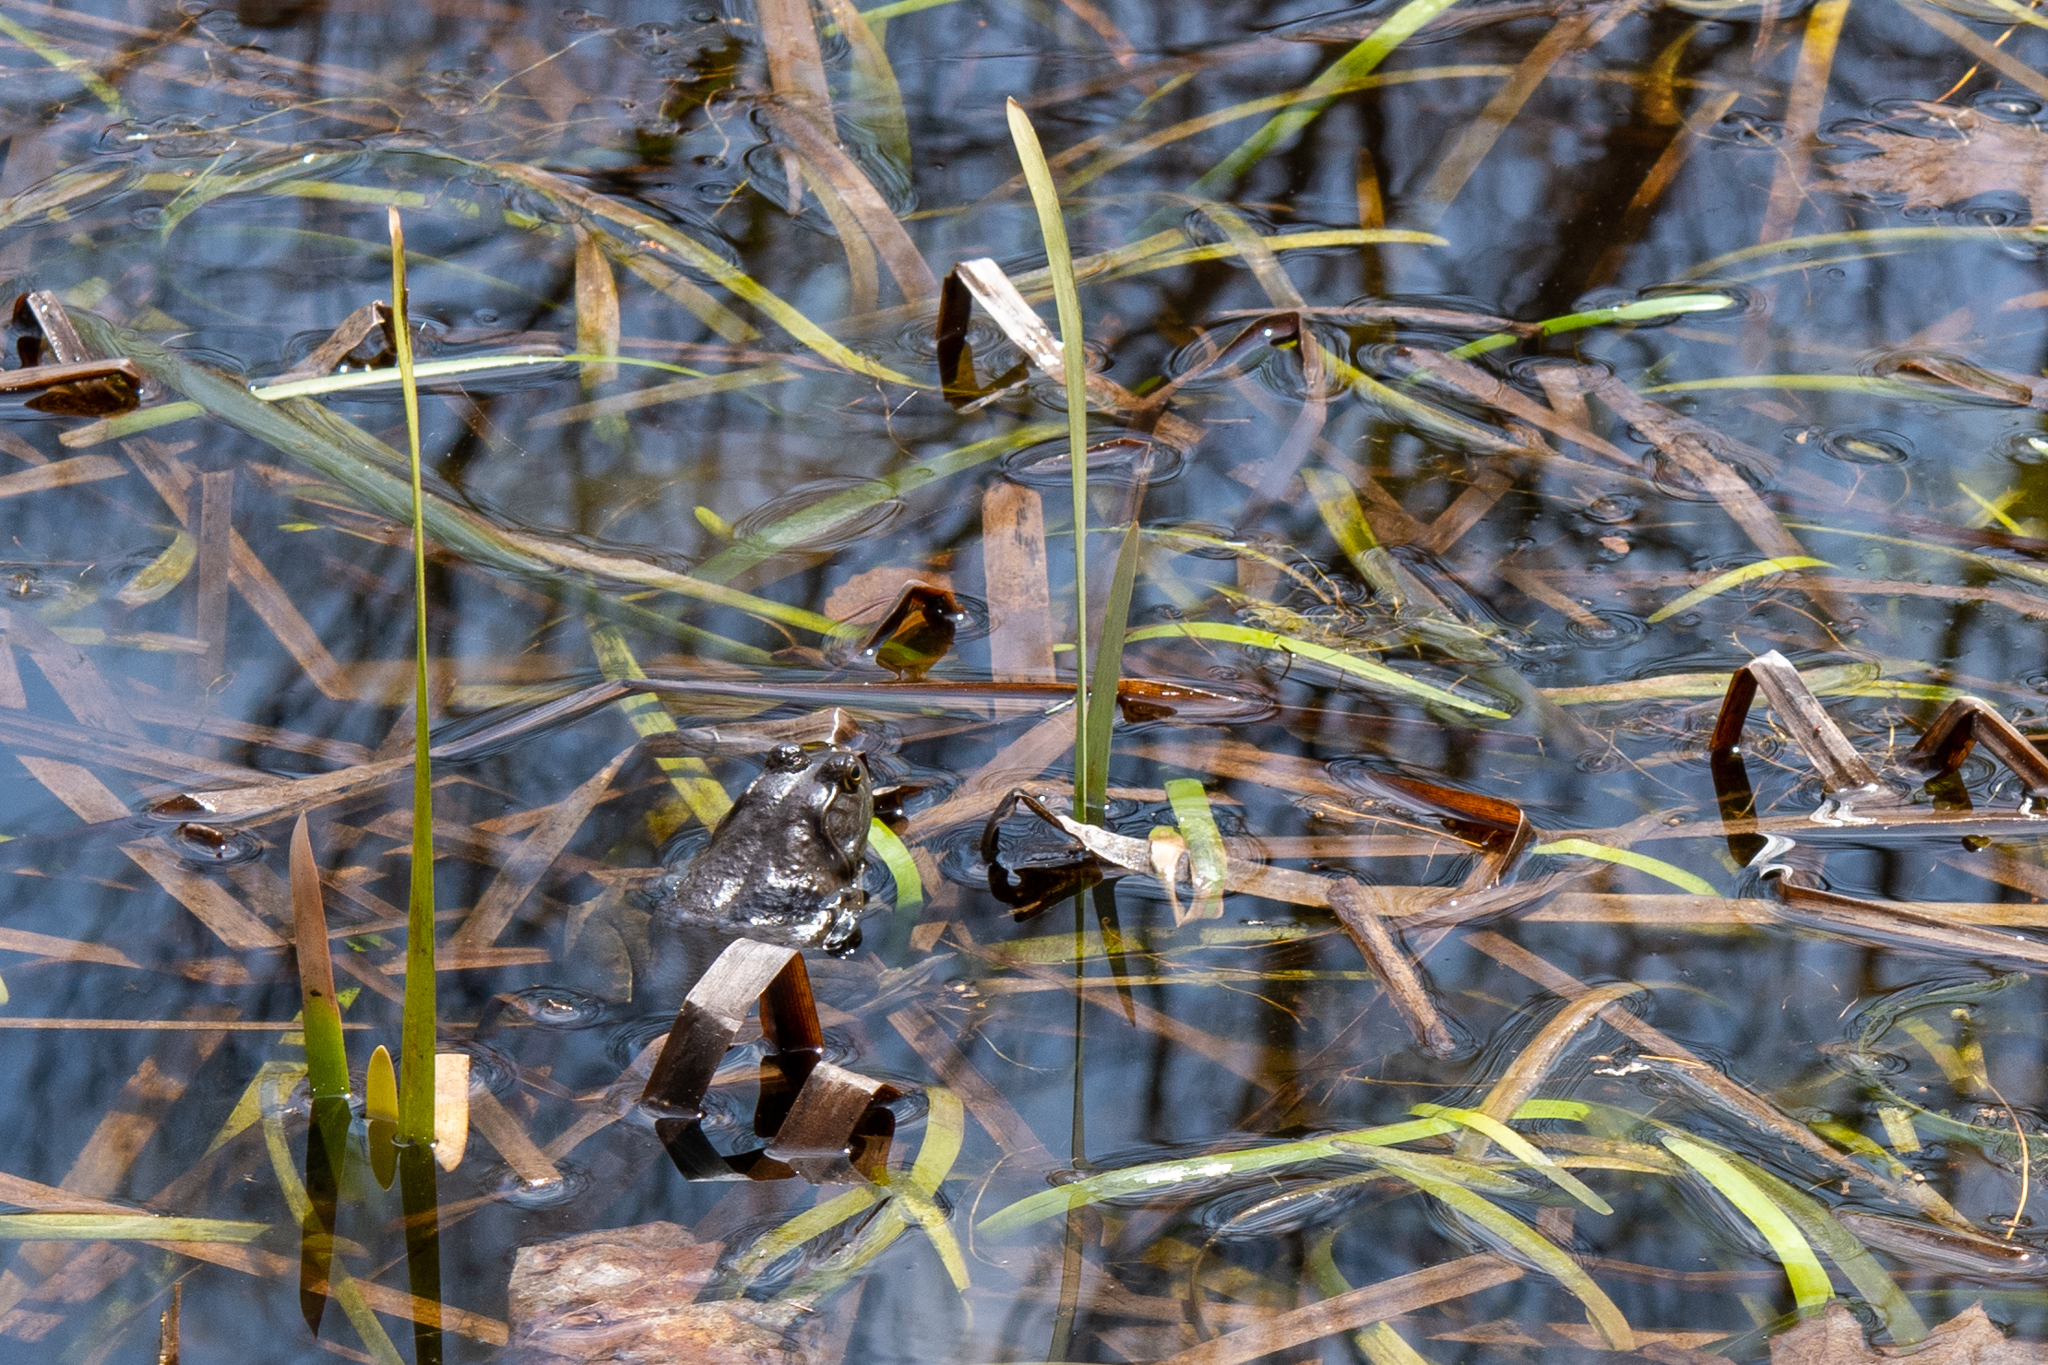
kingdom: Animalia
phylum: Chordata
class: Amphibia
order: Anura
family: Ranidae
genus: Lithobates
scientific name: Lithobates catesbeianus
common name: American bullfrog
